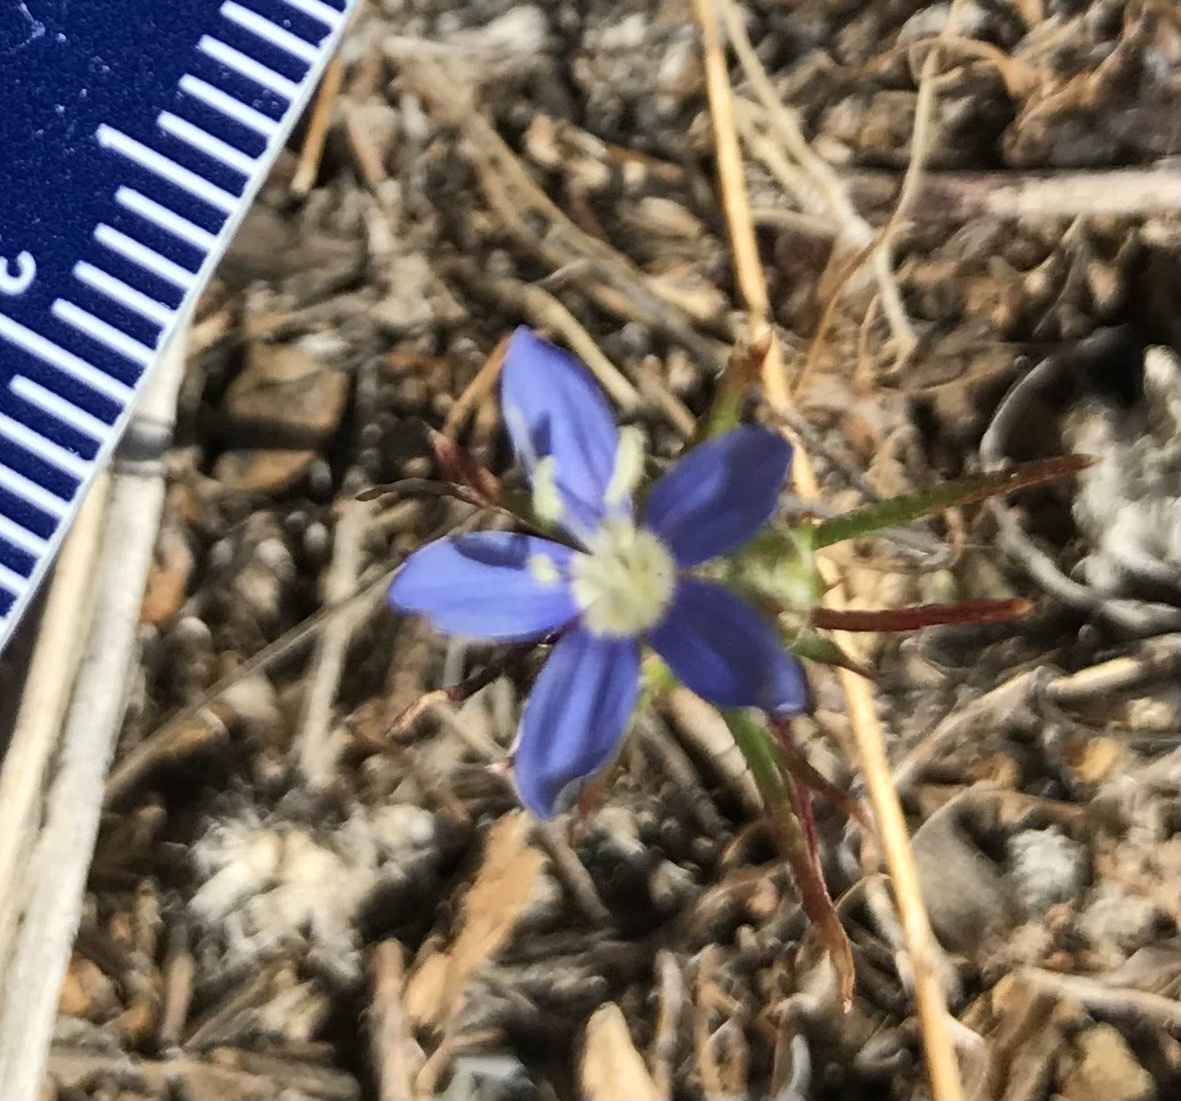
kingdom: Plantae
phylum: Tracheophyta
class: Magnoliopsida
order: Ericales
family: Polemoniaceae
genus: Eriastrum
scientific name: Eriastrum sapphirinum
